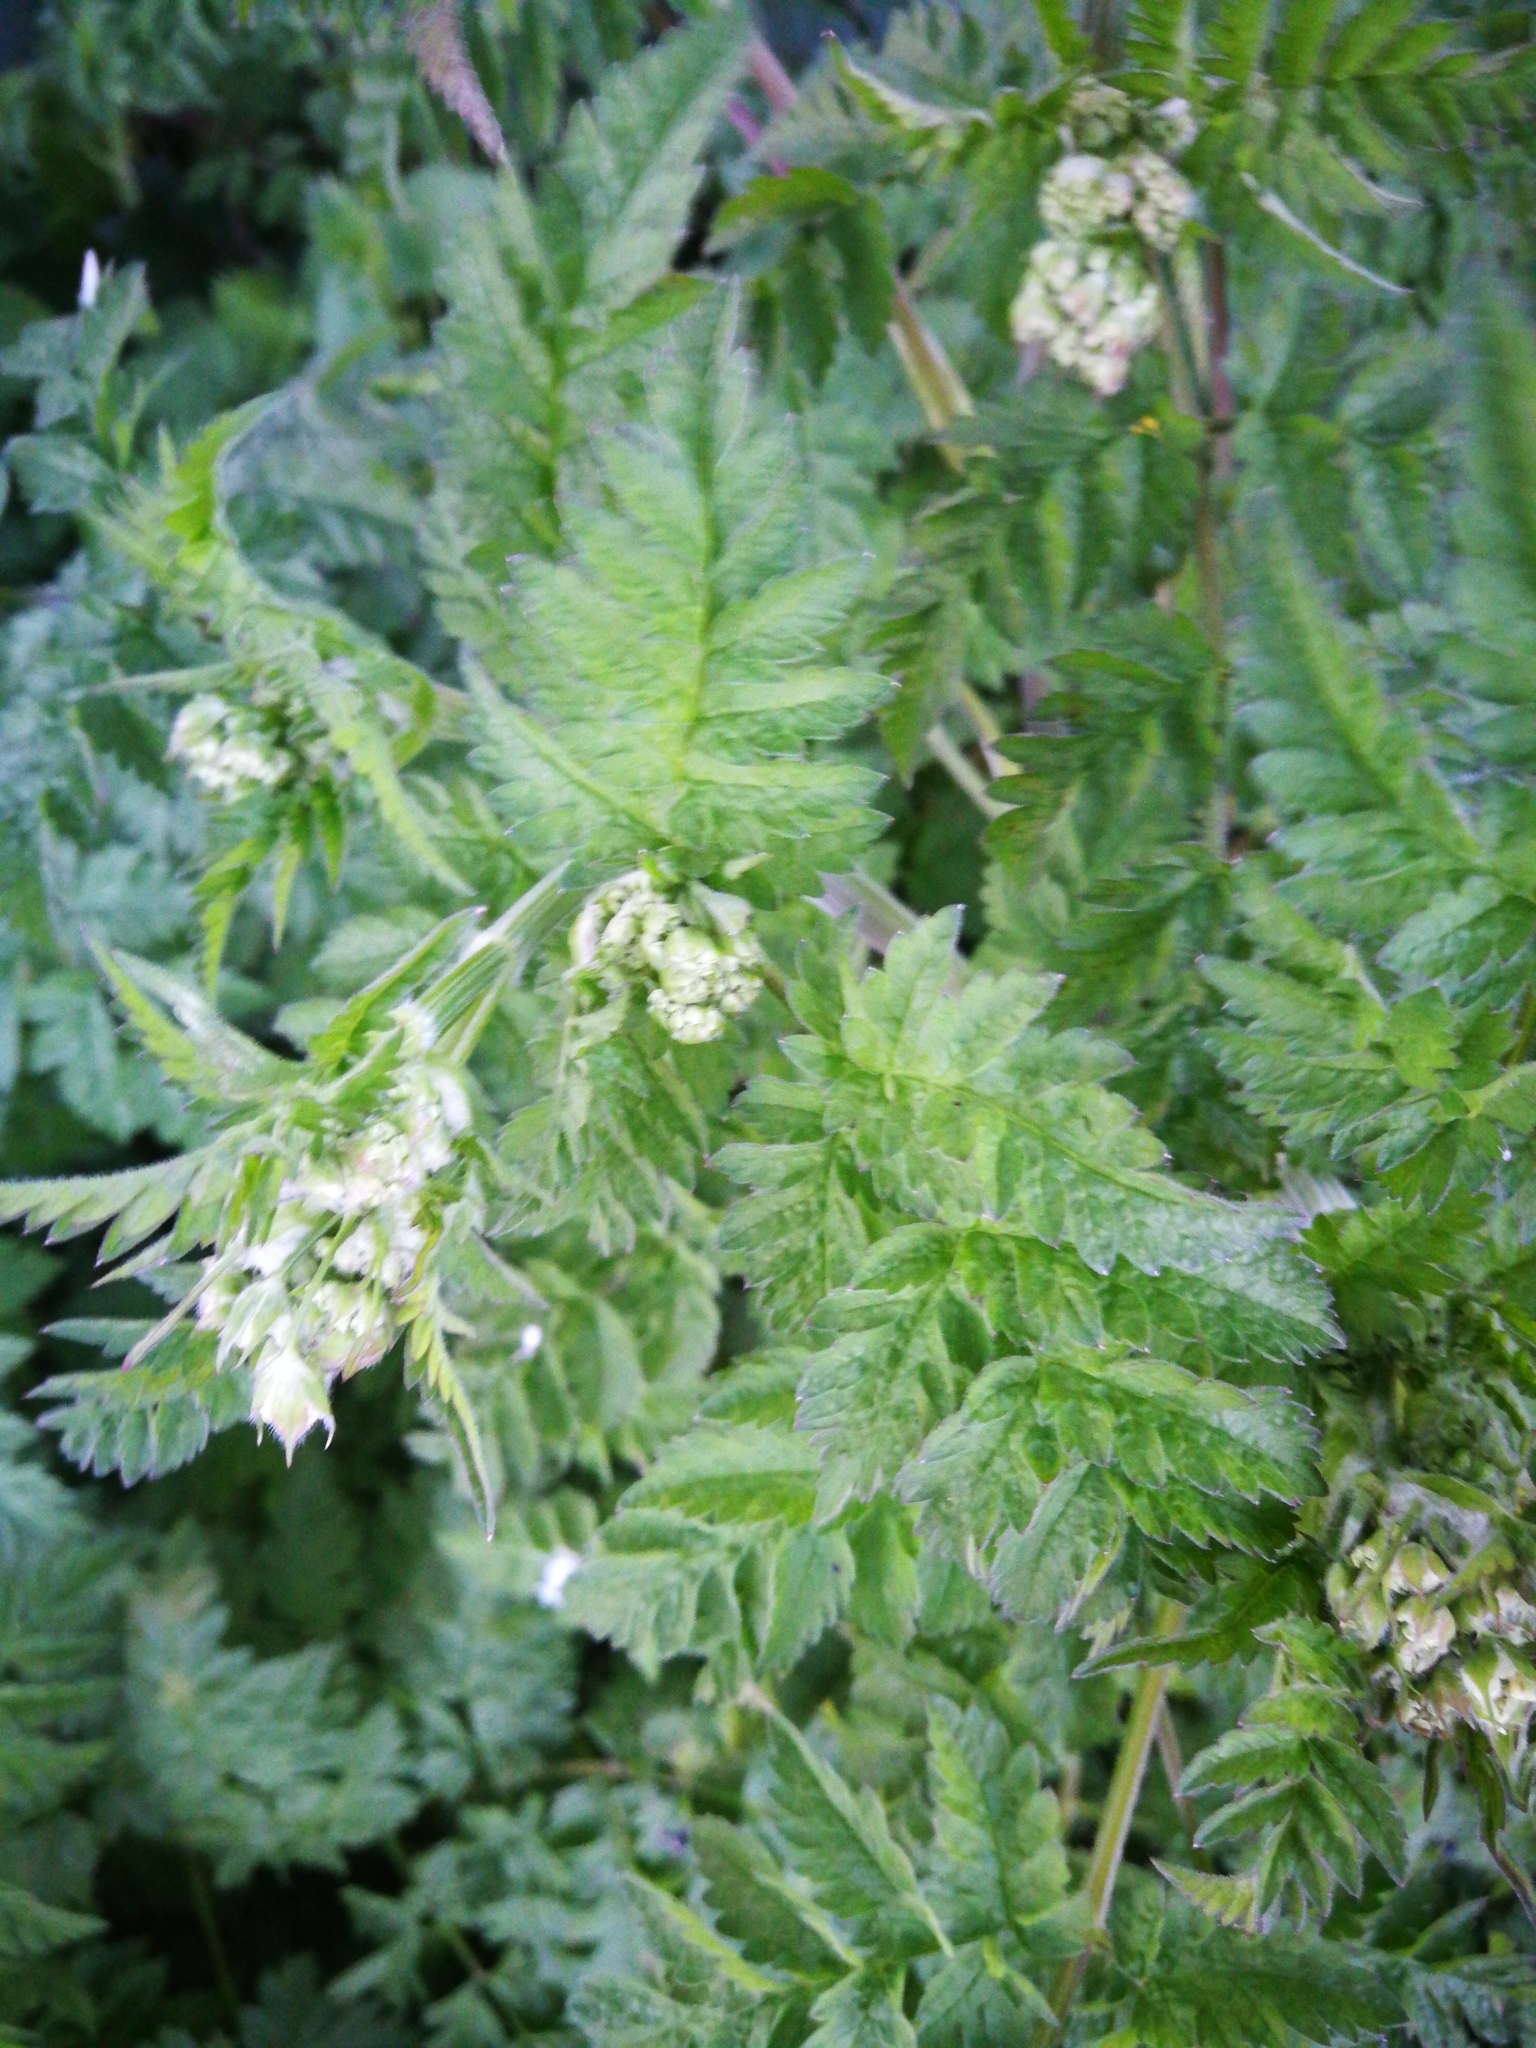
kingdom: Plantae
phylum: Tracheophyta
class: Magnoliopsida
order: Apiales
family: Apiaceae
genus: Anthriscus
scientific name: Anthriscus sylvestris
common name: Cow parsley
